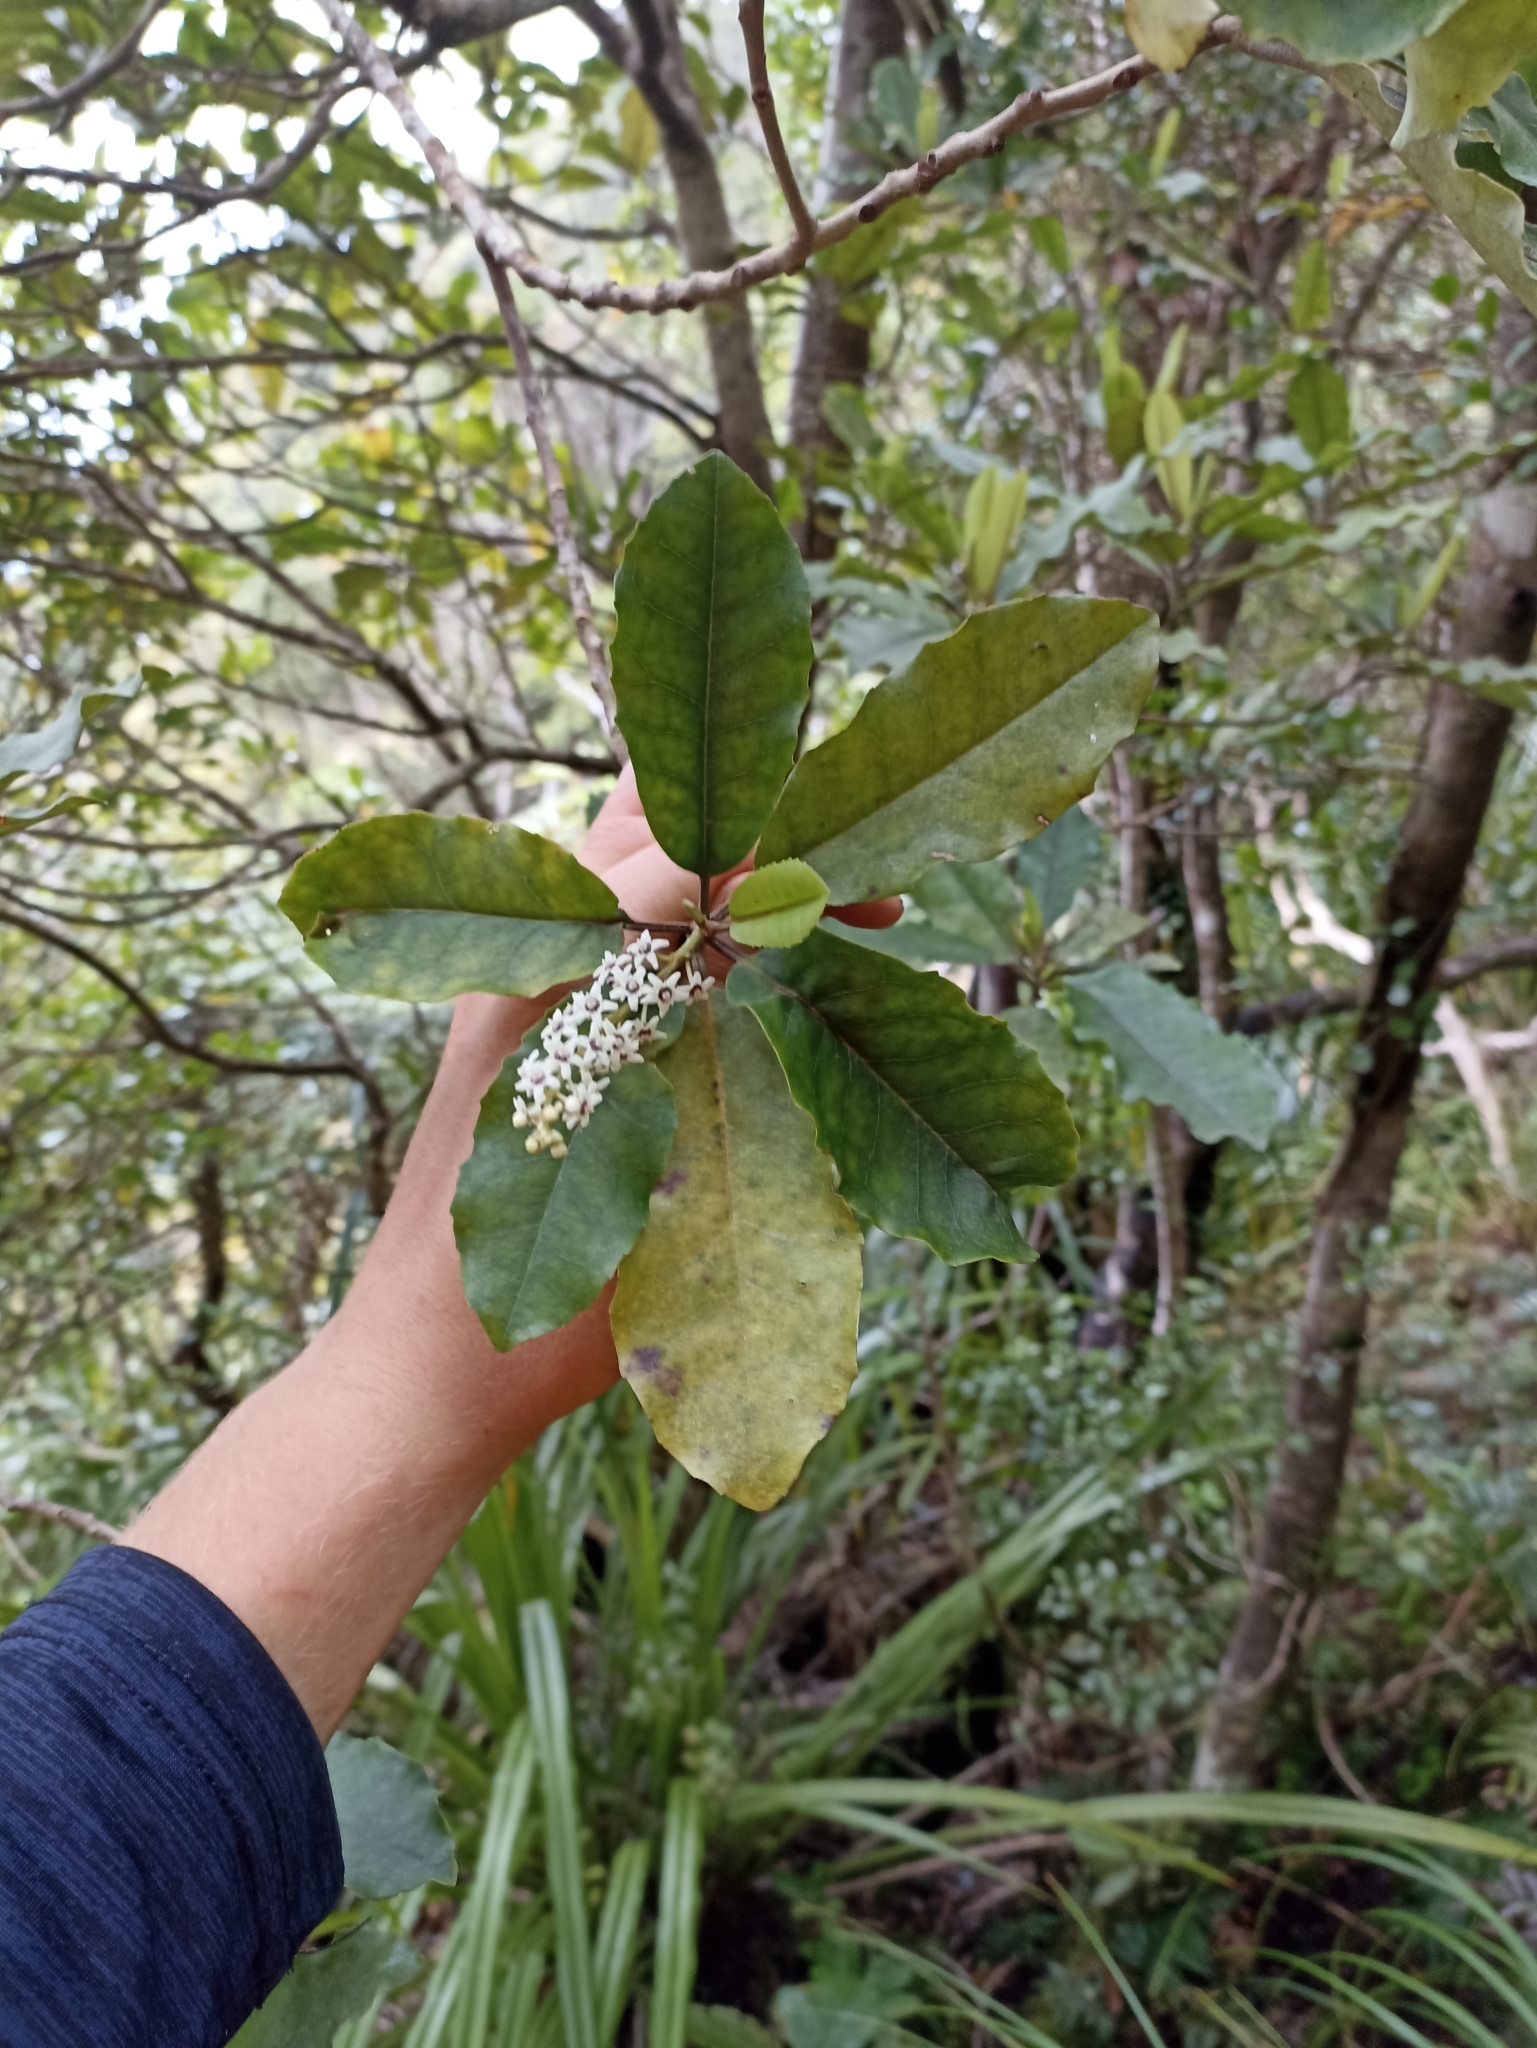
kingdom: Plantae
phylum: Tracheophyta
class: Magnoliopsida
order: Paracryphiales
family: Paracryphiaceae
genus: Quintinia
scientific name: Quintinia serrata
